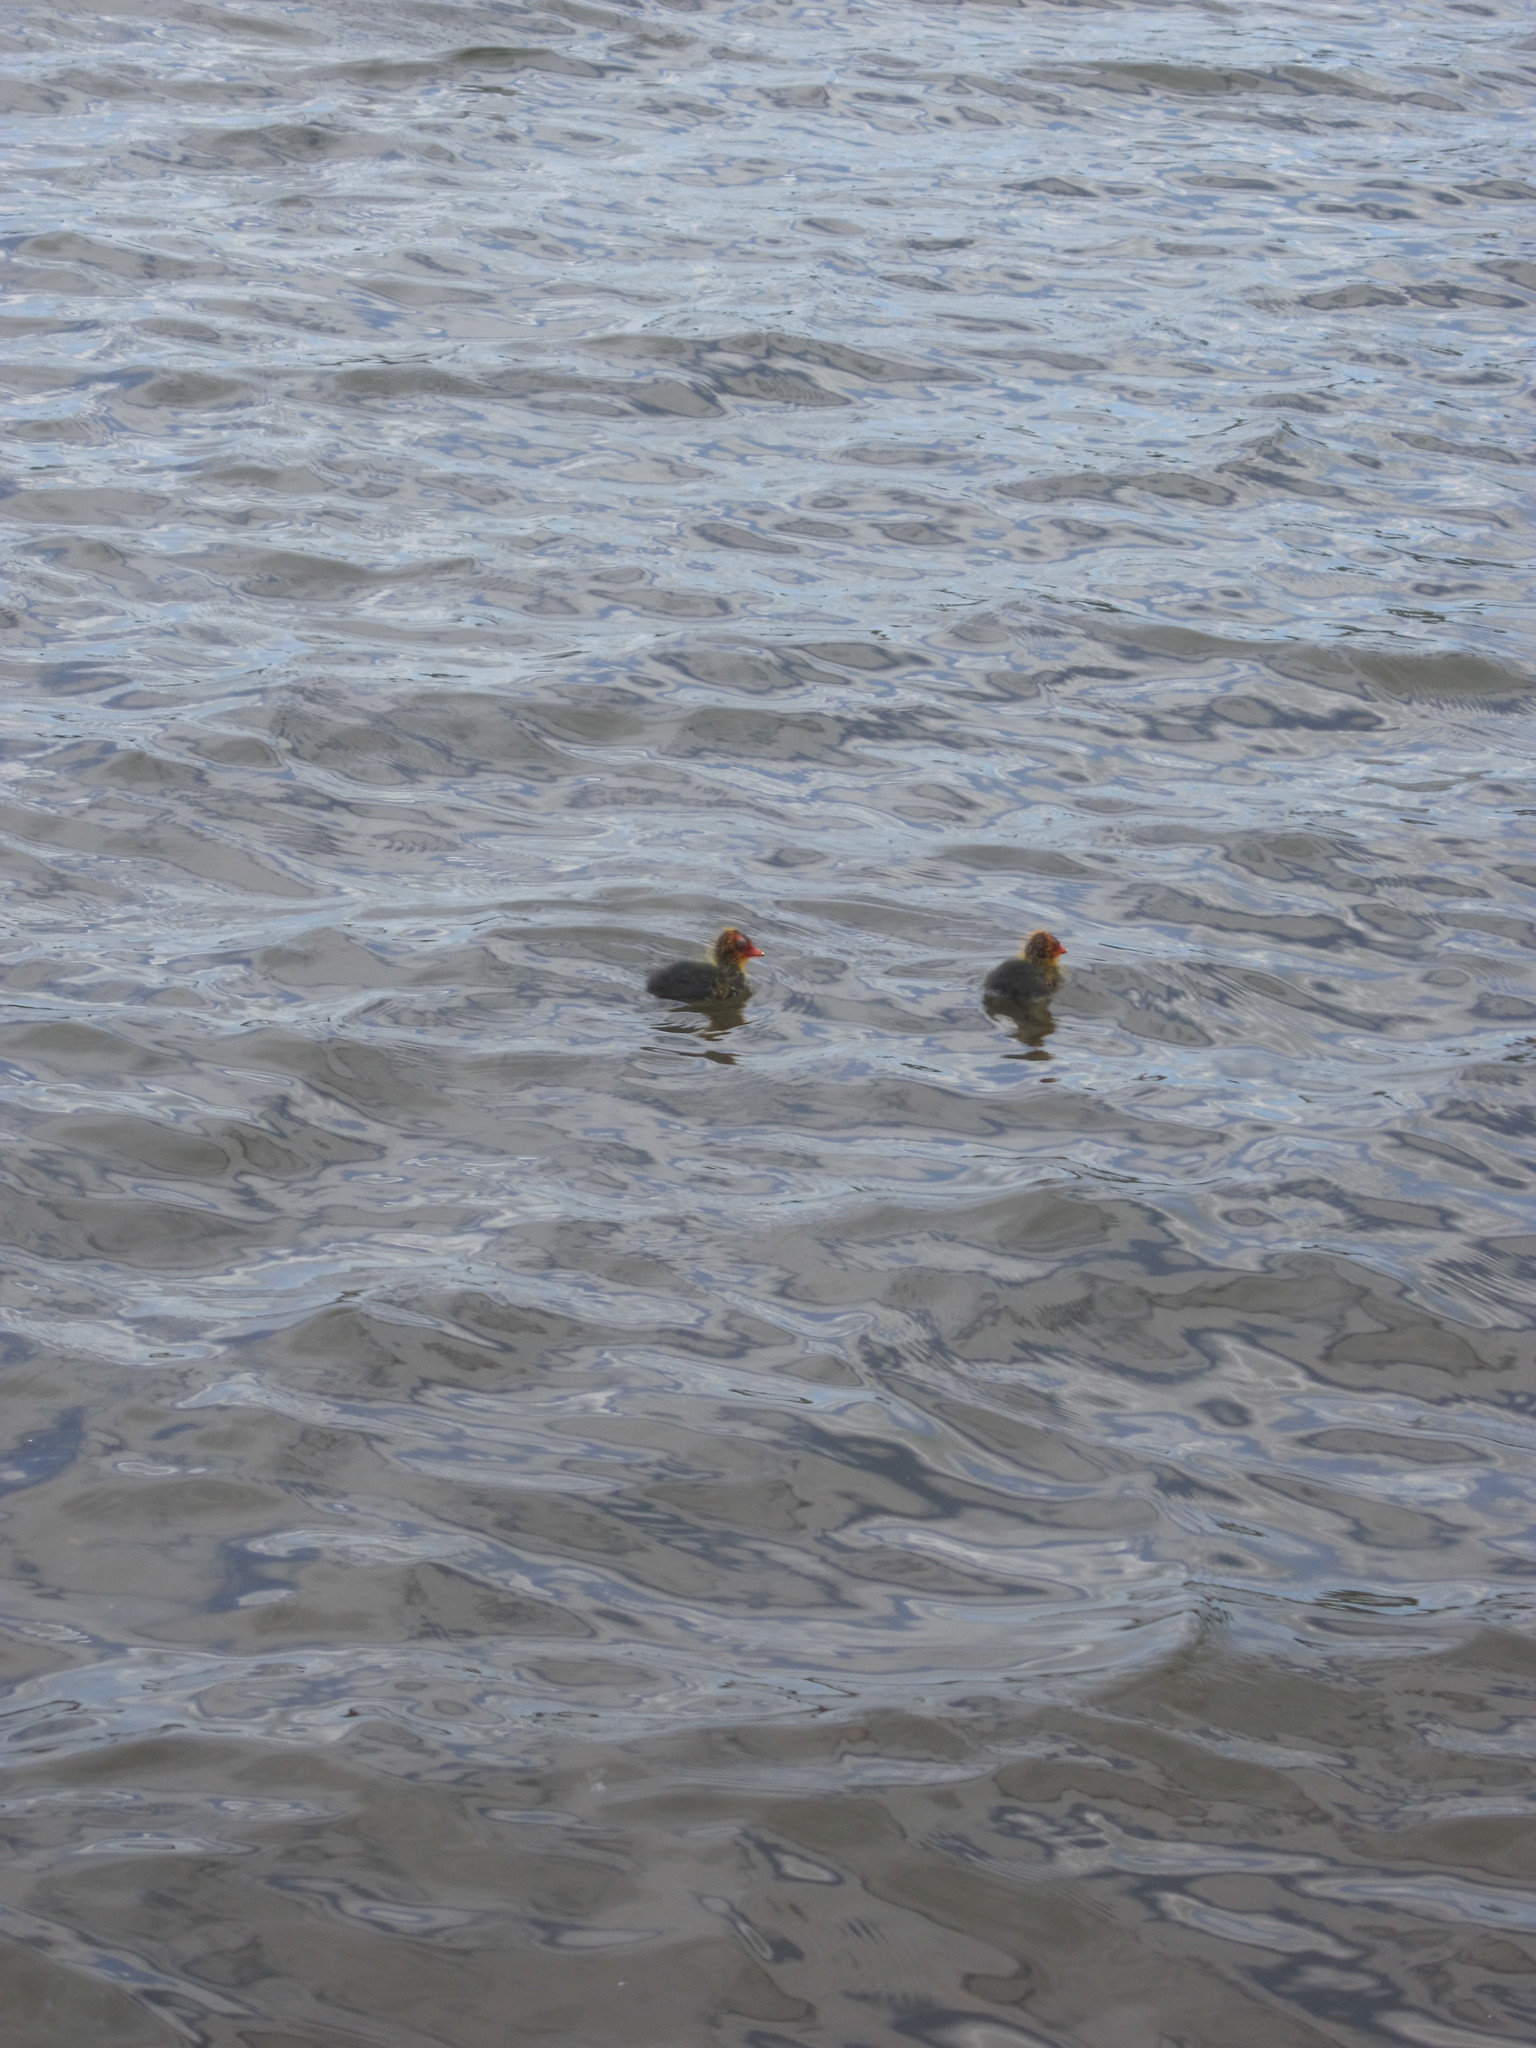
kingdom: Animalia
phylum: Chordata
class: Aves
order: Gruiformes
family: Rallidae
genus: Fulica
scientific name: Fulica atra
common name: Eurasian coot
